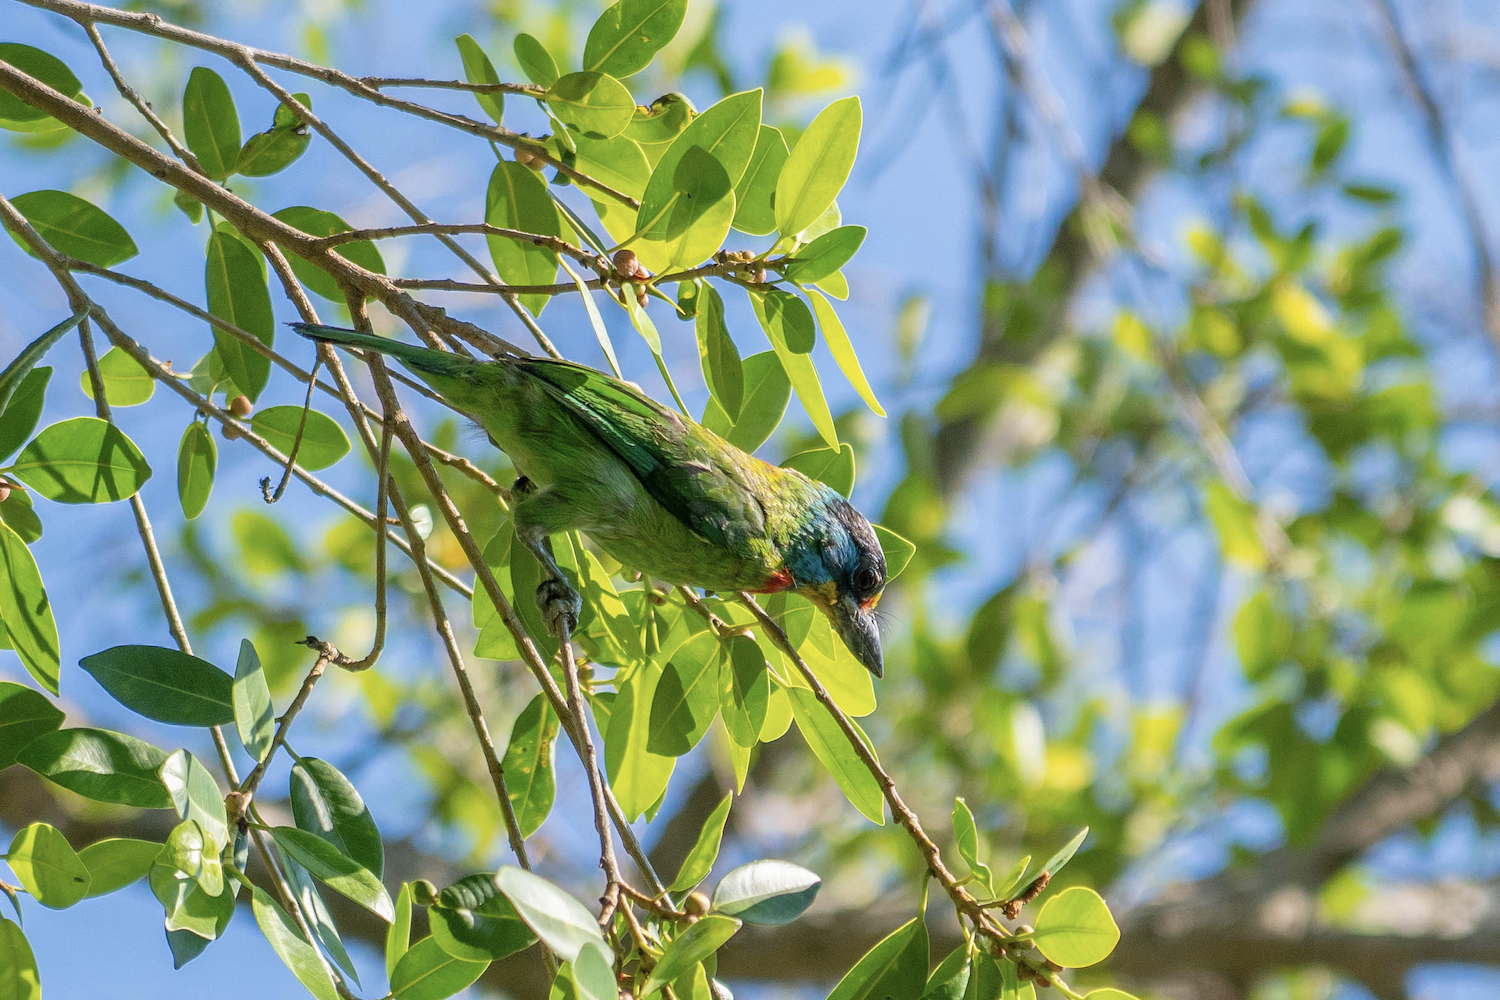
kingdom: Animalia
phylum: Chordata
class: Aves
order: Piciformes
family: Megalaimidae
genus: Psilopogon
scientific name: Psilopogon nuchalis
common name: Taiwan barbet
